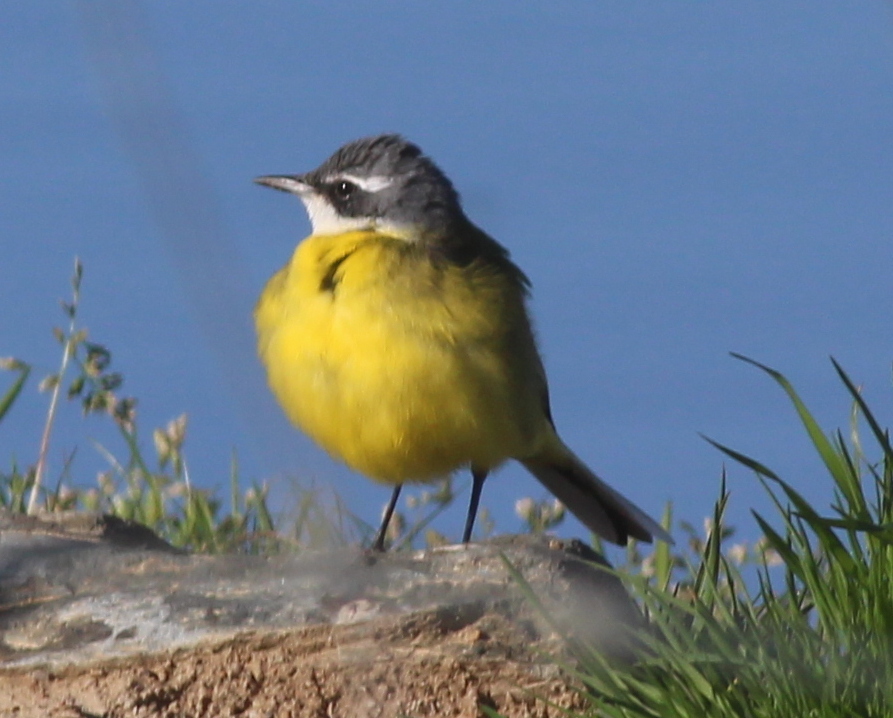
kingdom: Animalia
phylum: Chordata
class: Aves
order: Passeriformes
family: Motacillidae
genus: Motacilla
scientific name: Motacilla flava
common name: Western yellow wagtail
